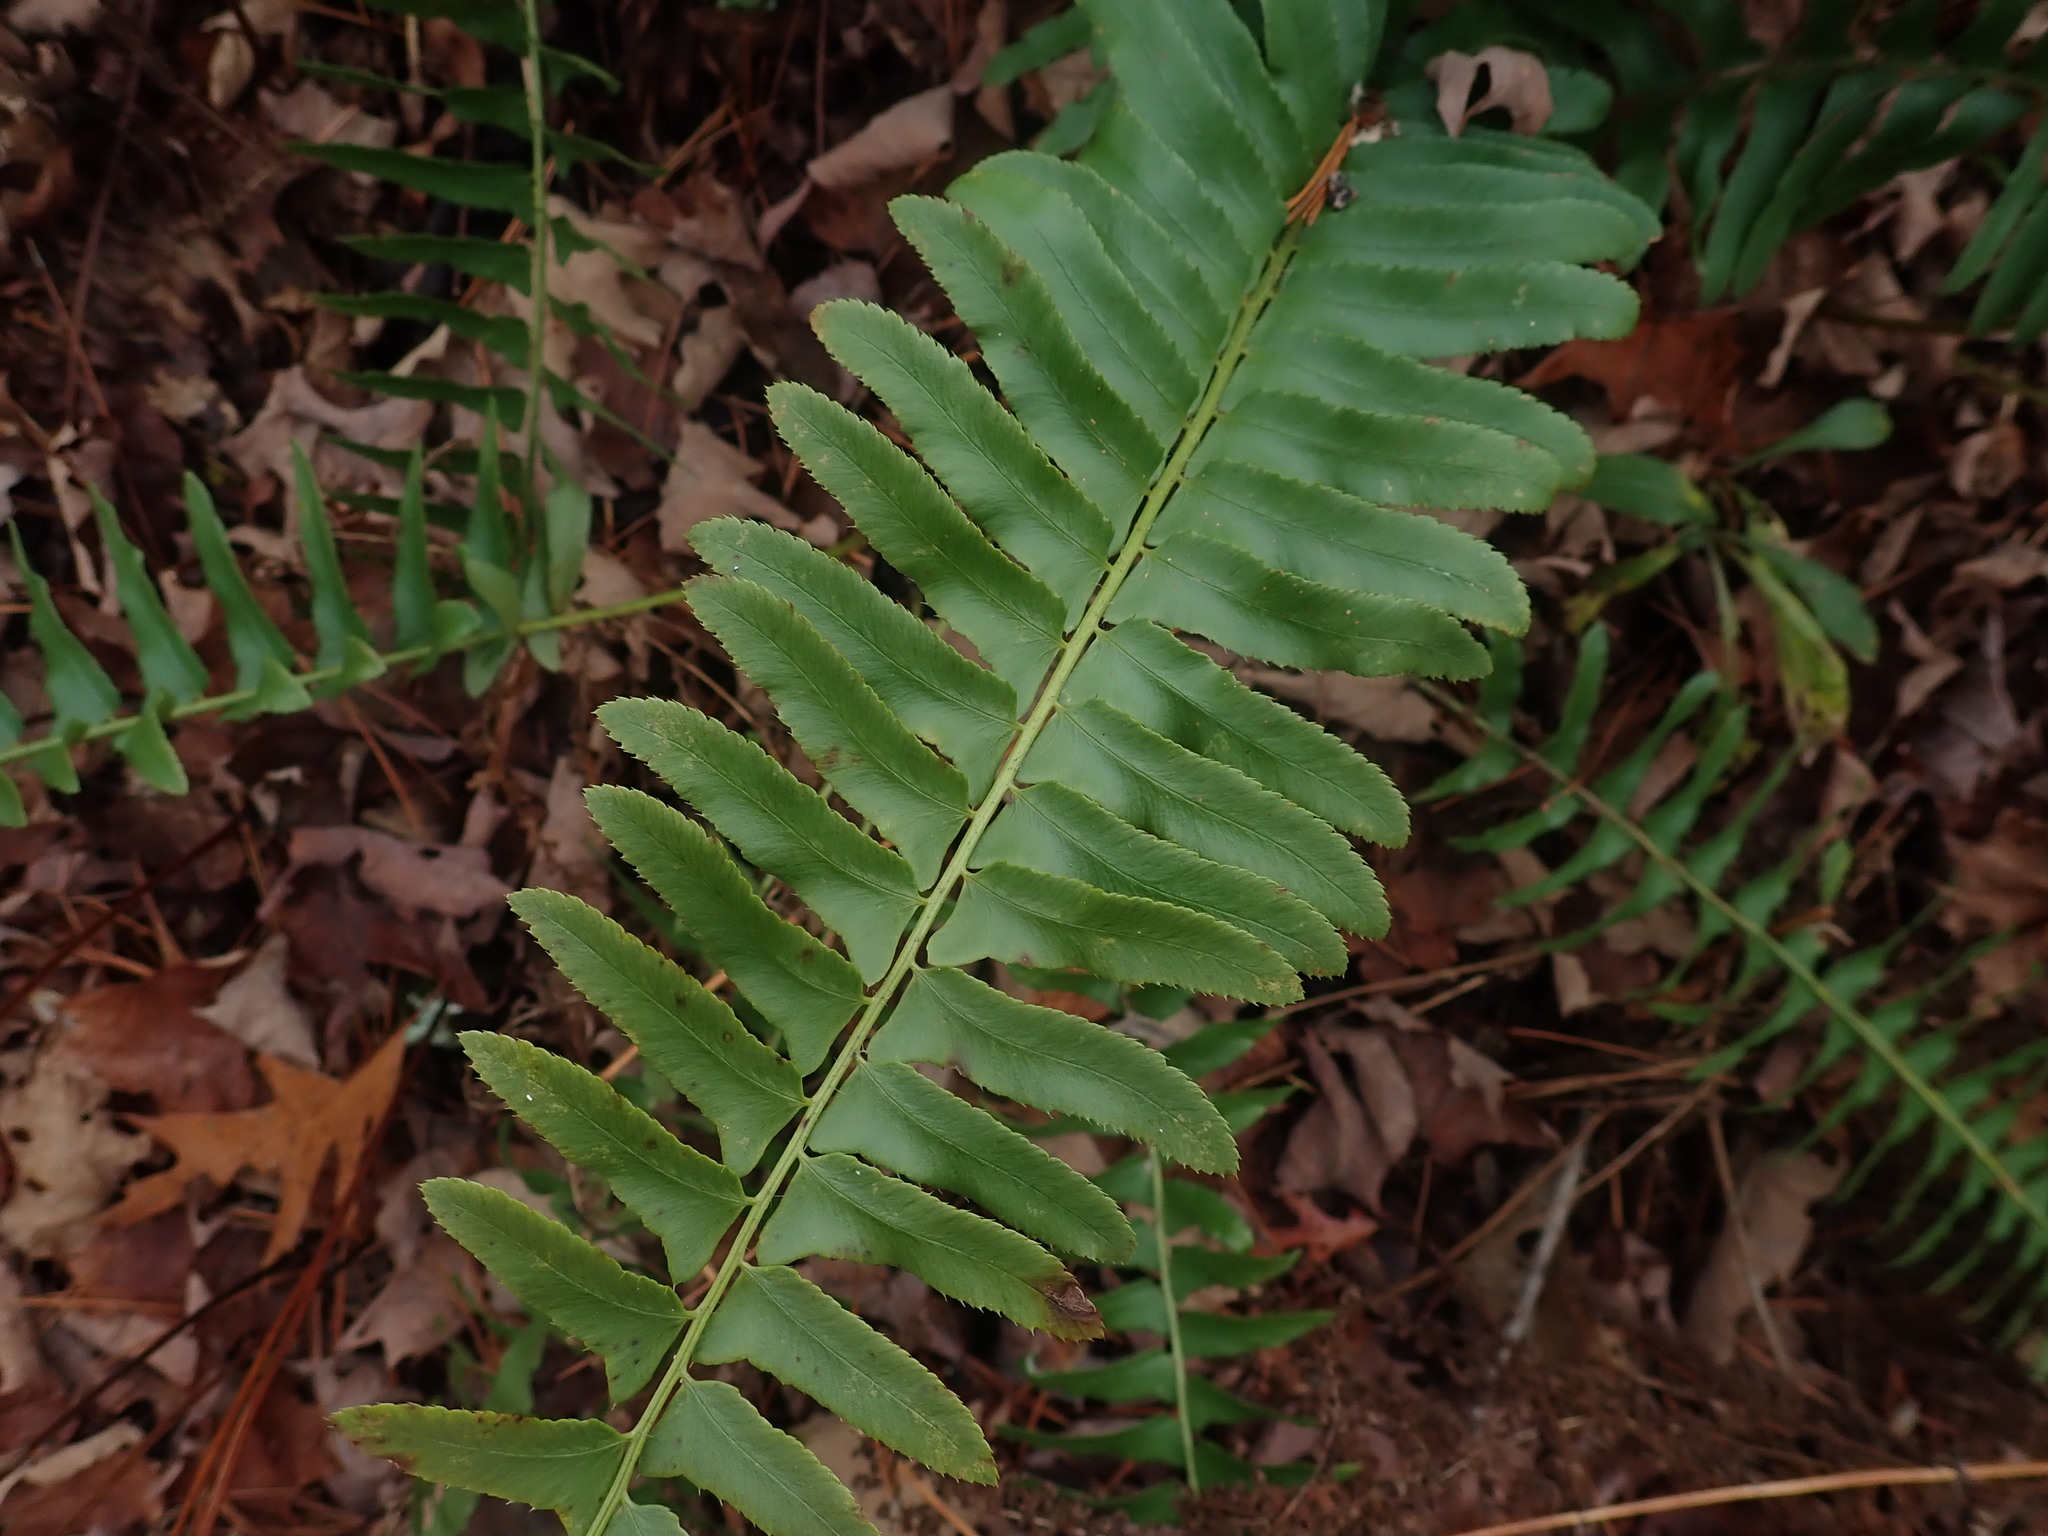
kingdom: Plantae
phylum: Tracheophyta
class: Polypodiopsida
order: Polypodiales
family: Dryopteridaceae
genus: Polystichum
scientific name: Polystichum acrostichoides
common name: Christmas fern
